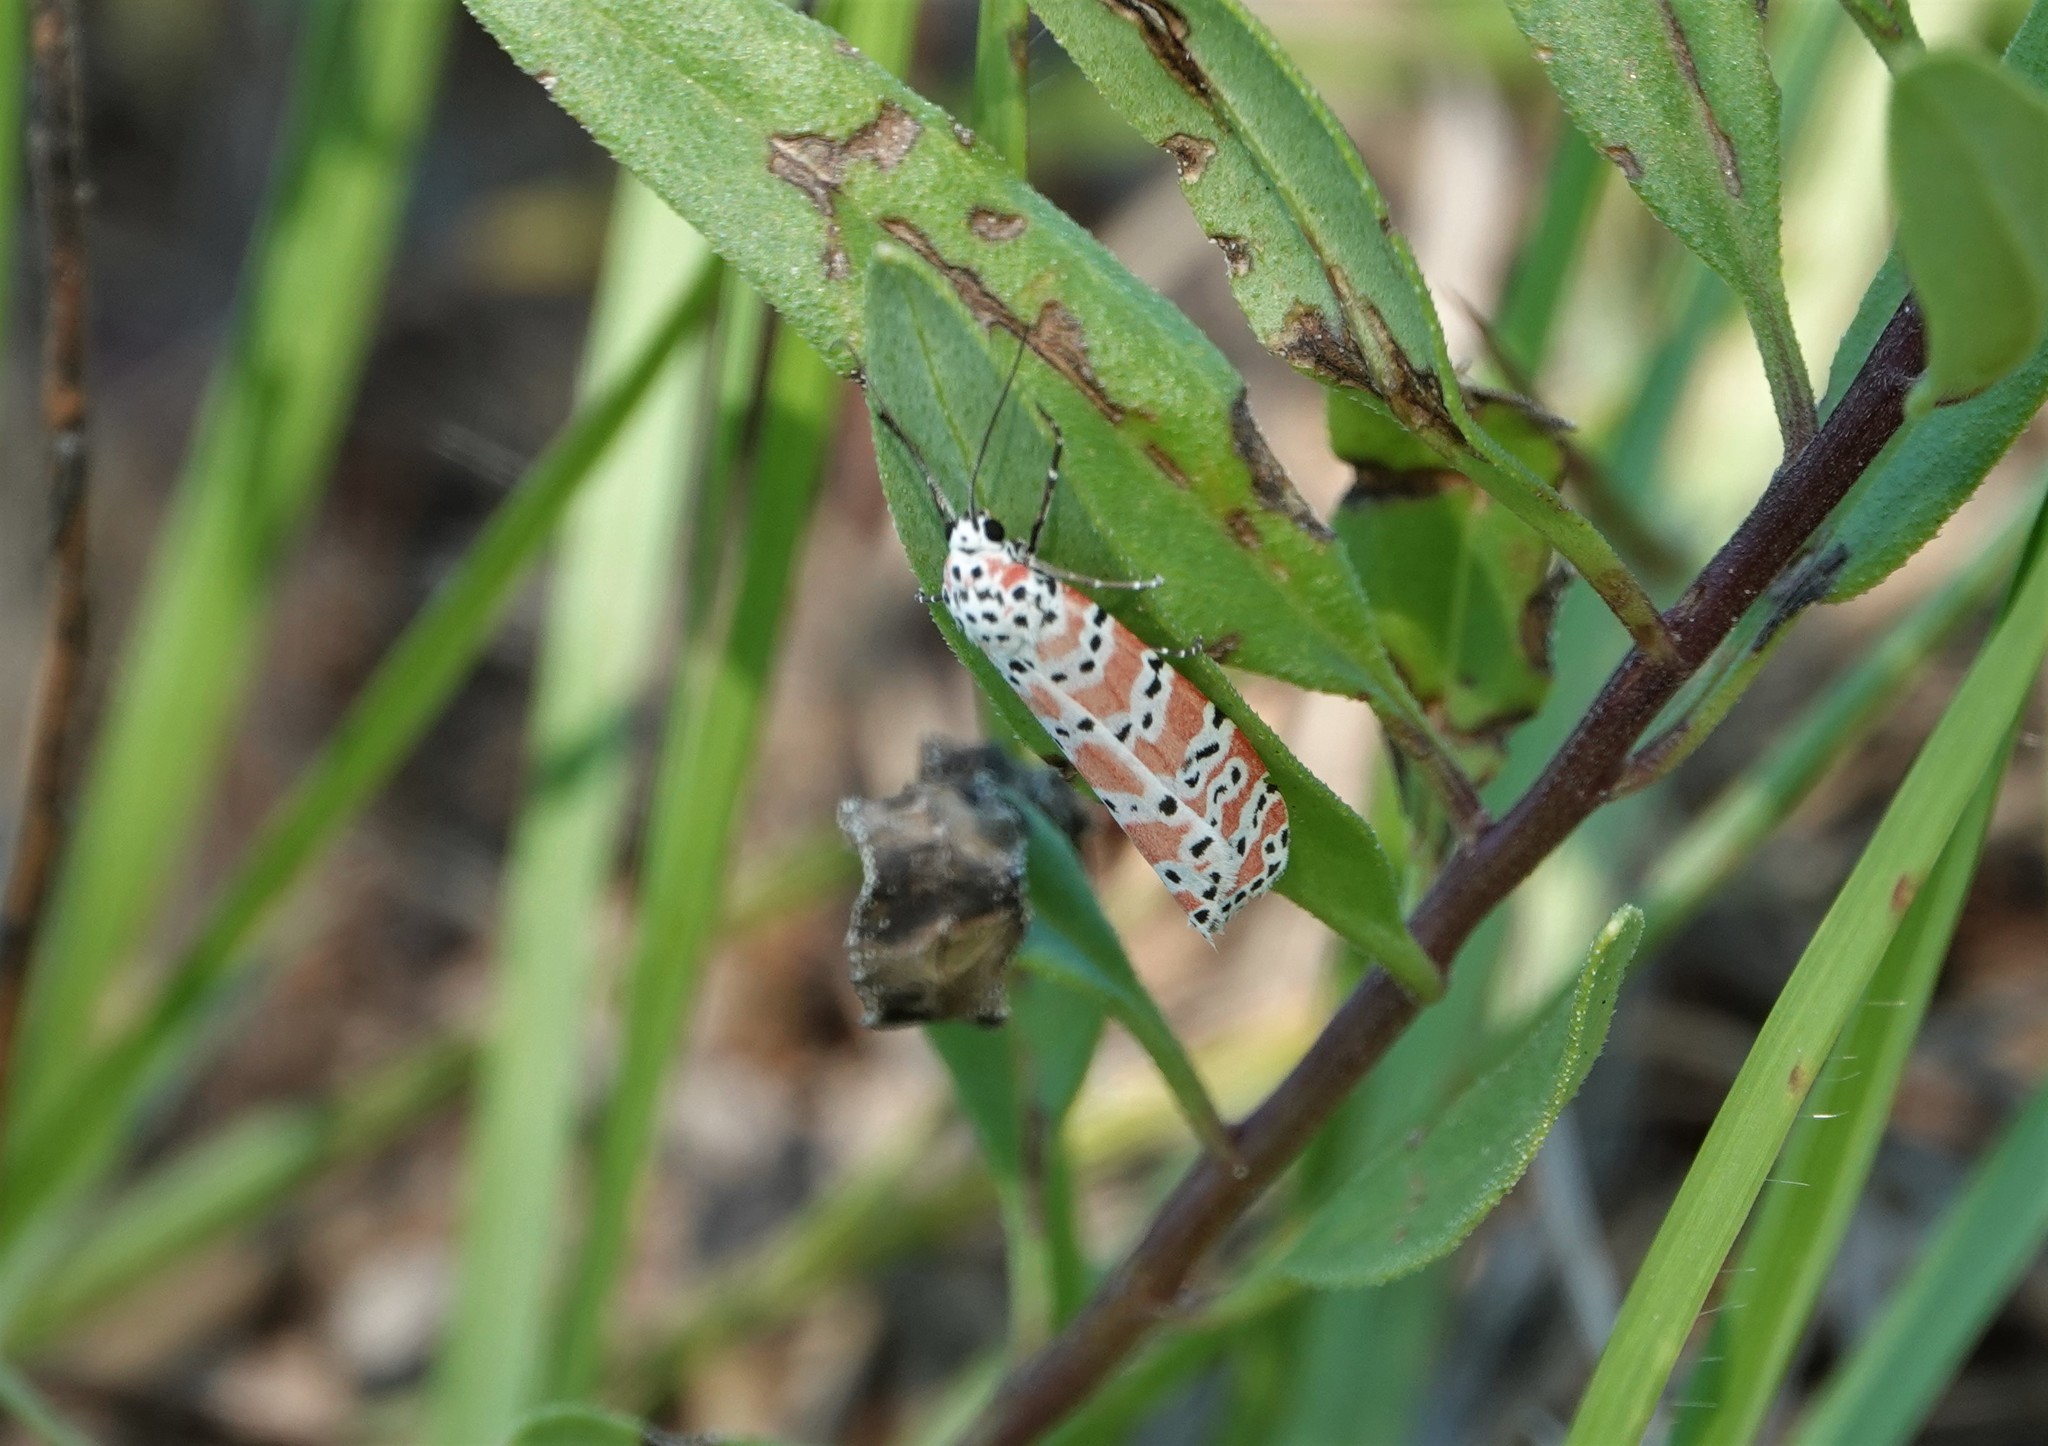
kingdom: Animalia
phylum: Arthropoda
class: Insecta
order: Lepidoptera
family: Erebidae
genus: Utetheisa
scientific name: Utetheisa ornatrix
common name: Beautiful utetheisa
